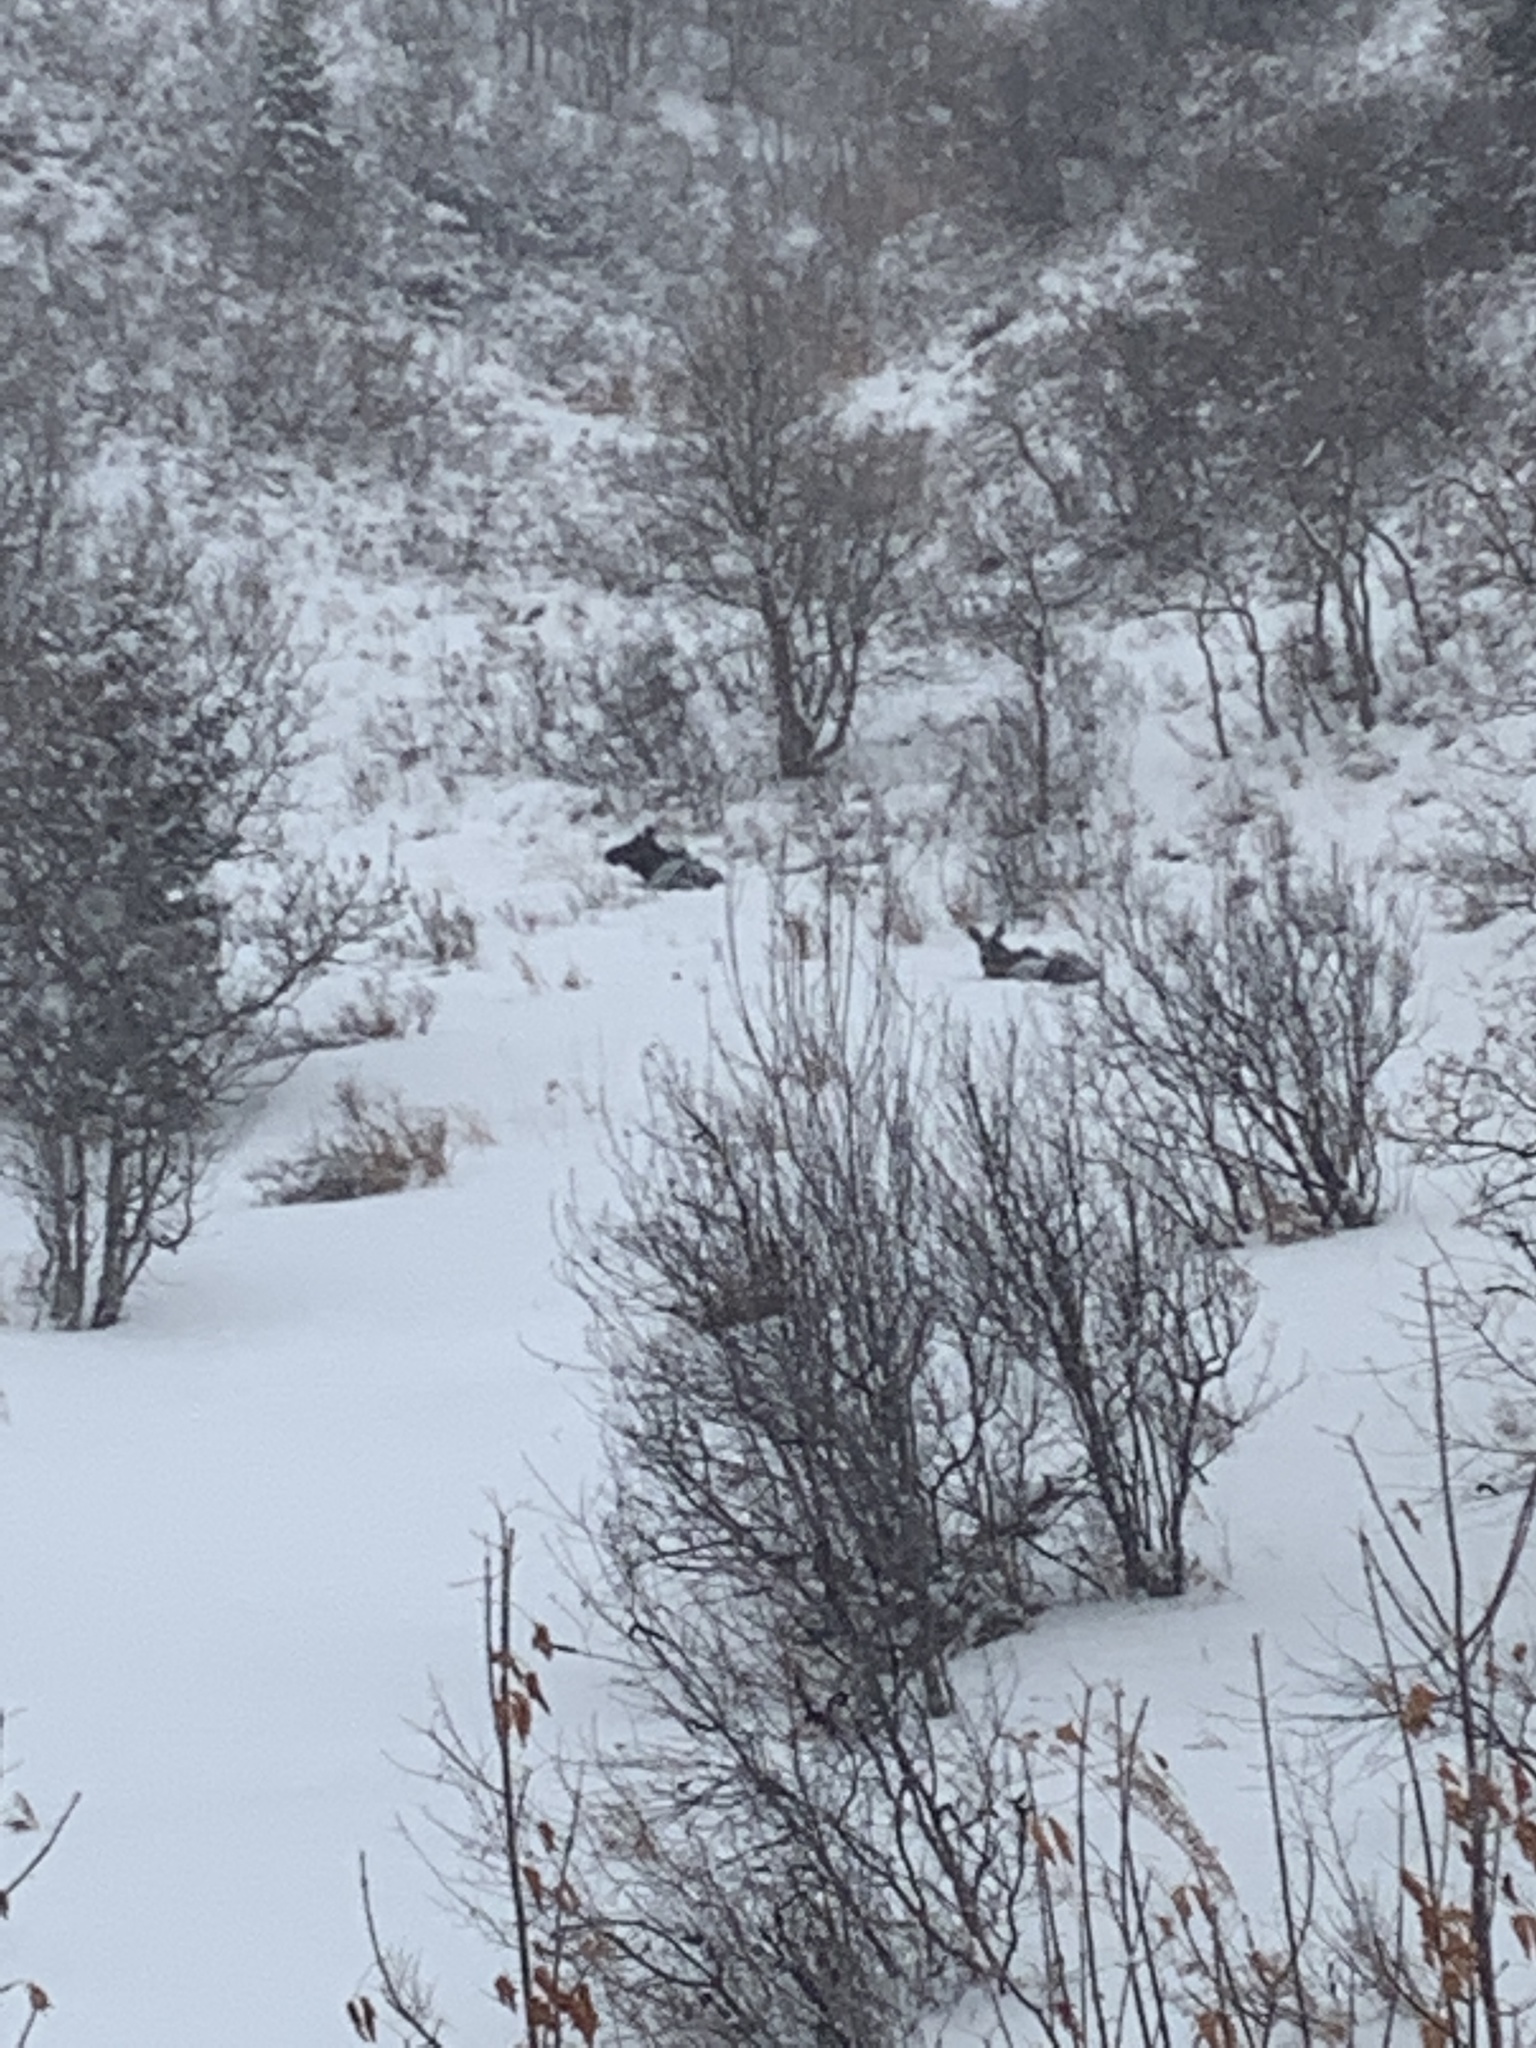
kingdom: Animalia
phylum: Chordata
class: Mammalia
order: Artiodactyla
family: Cervidae
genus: Alces
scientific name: Alces alces
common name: Moose
